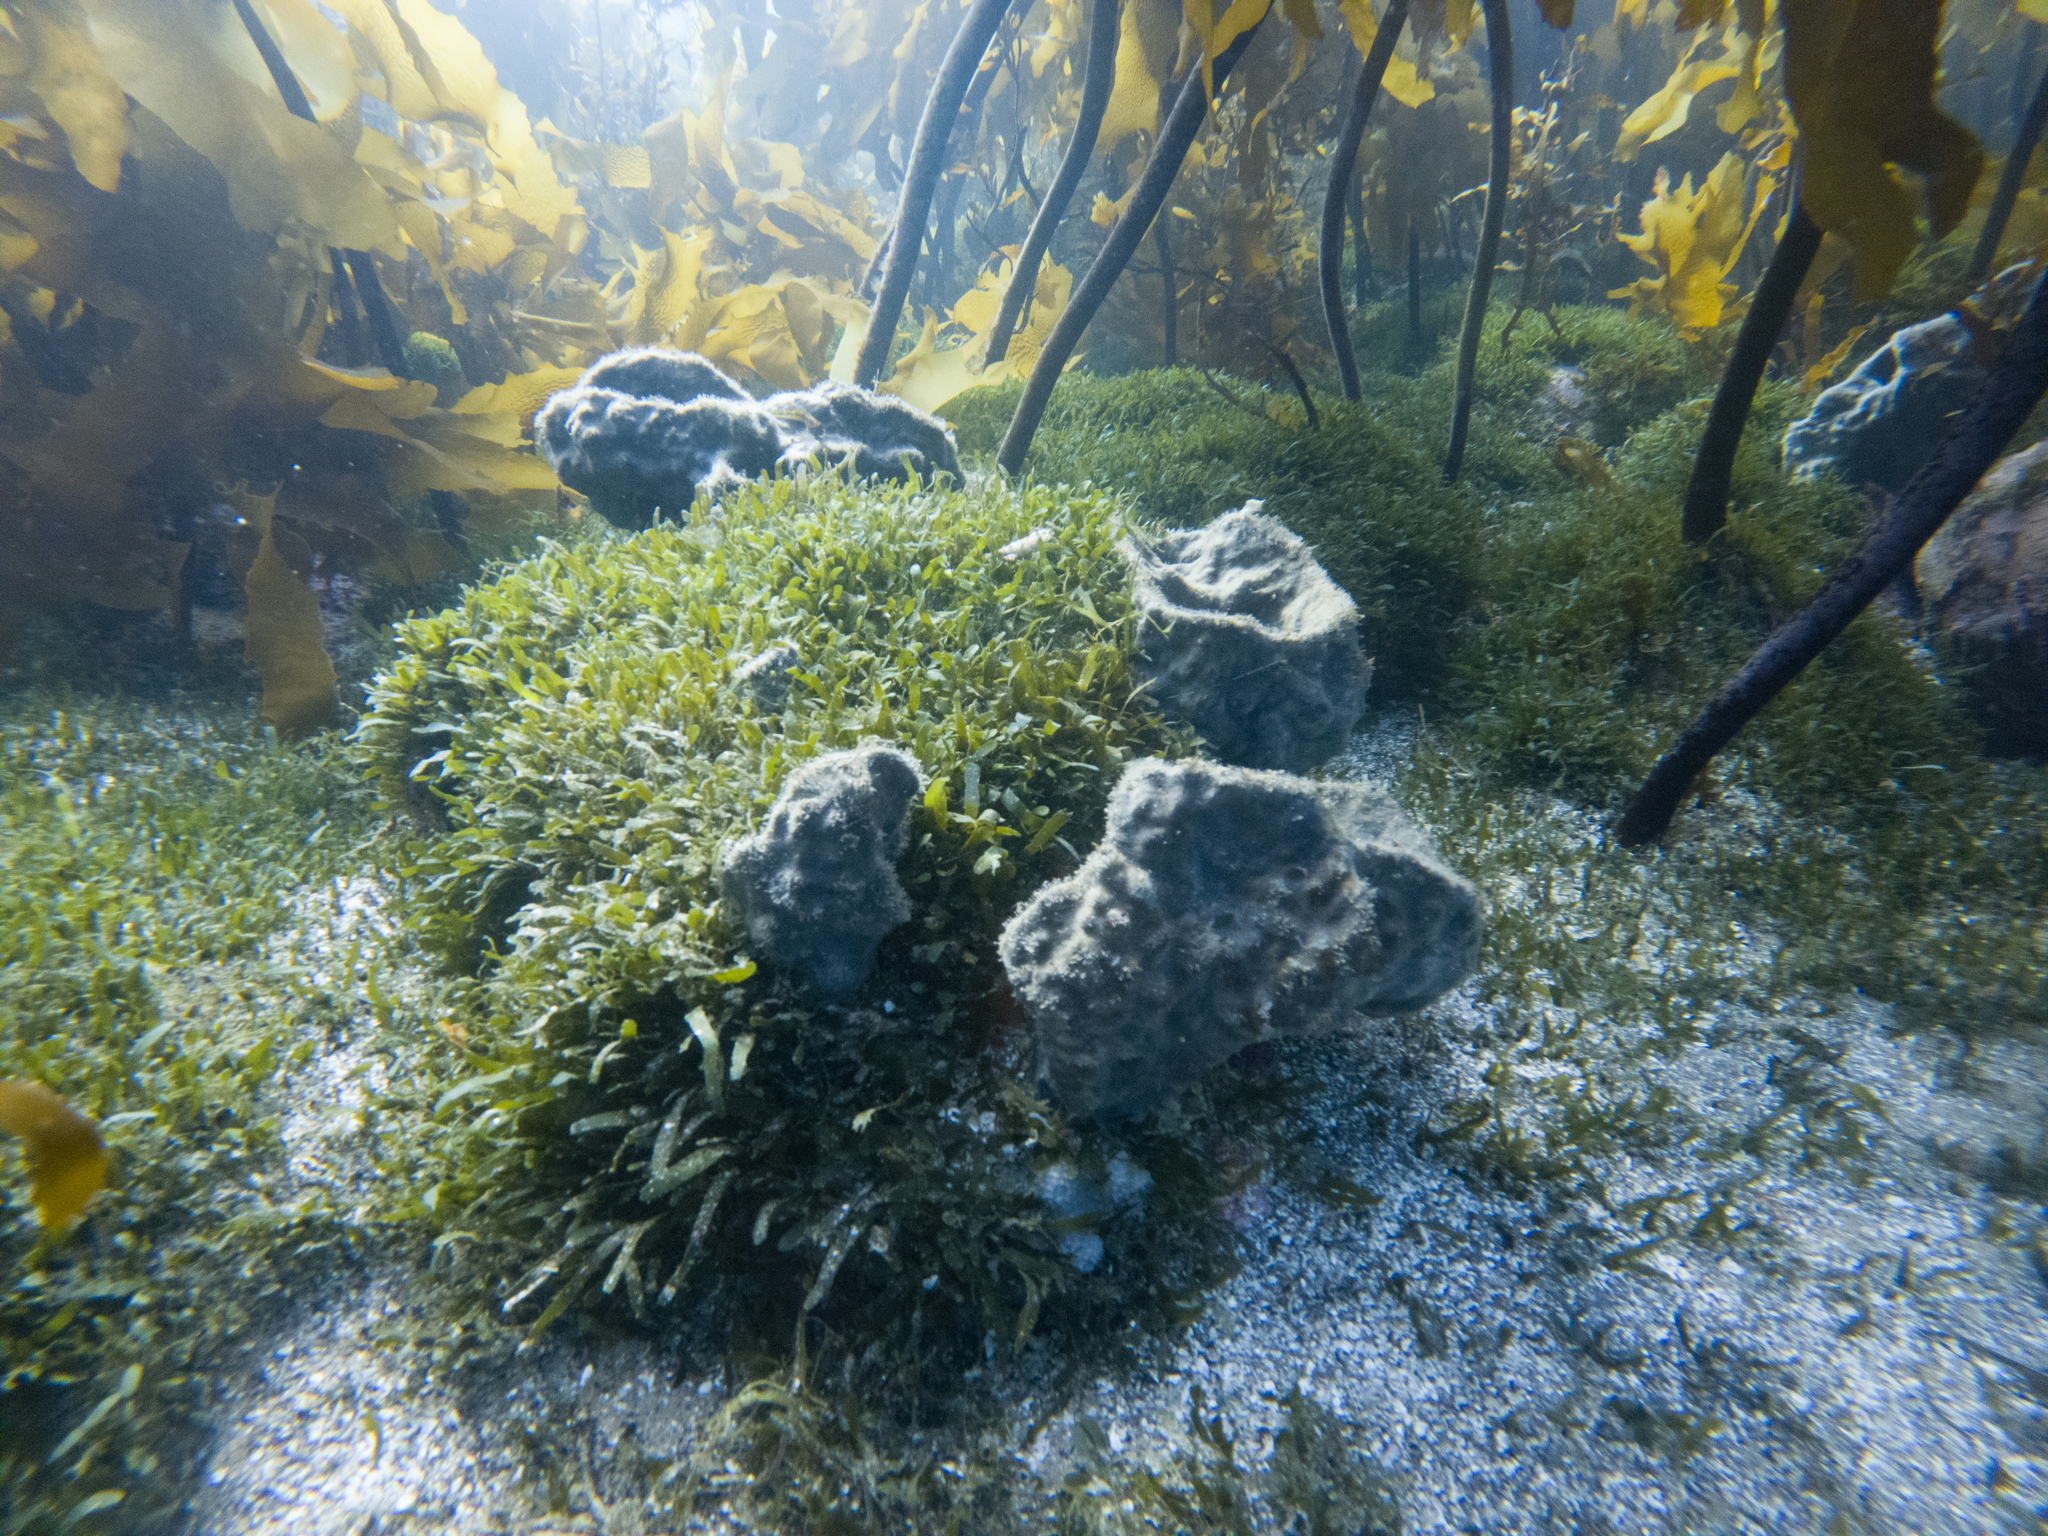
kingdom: Animalia
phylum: Porifera
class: Demospongiae
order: Tetractinellida
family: Ancorinidae
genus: Ecionemia
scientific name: Ecionemia alata
